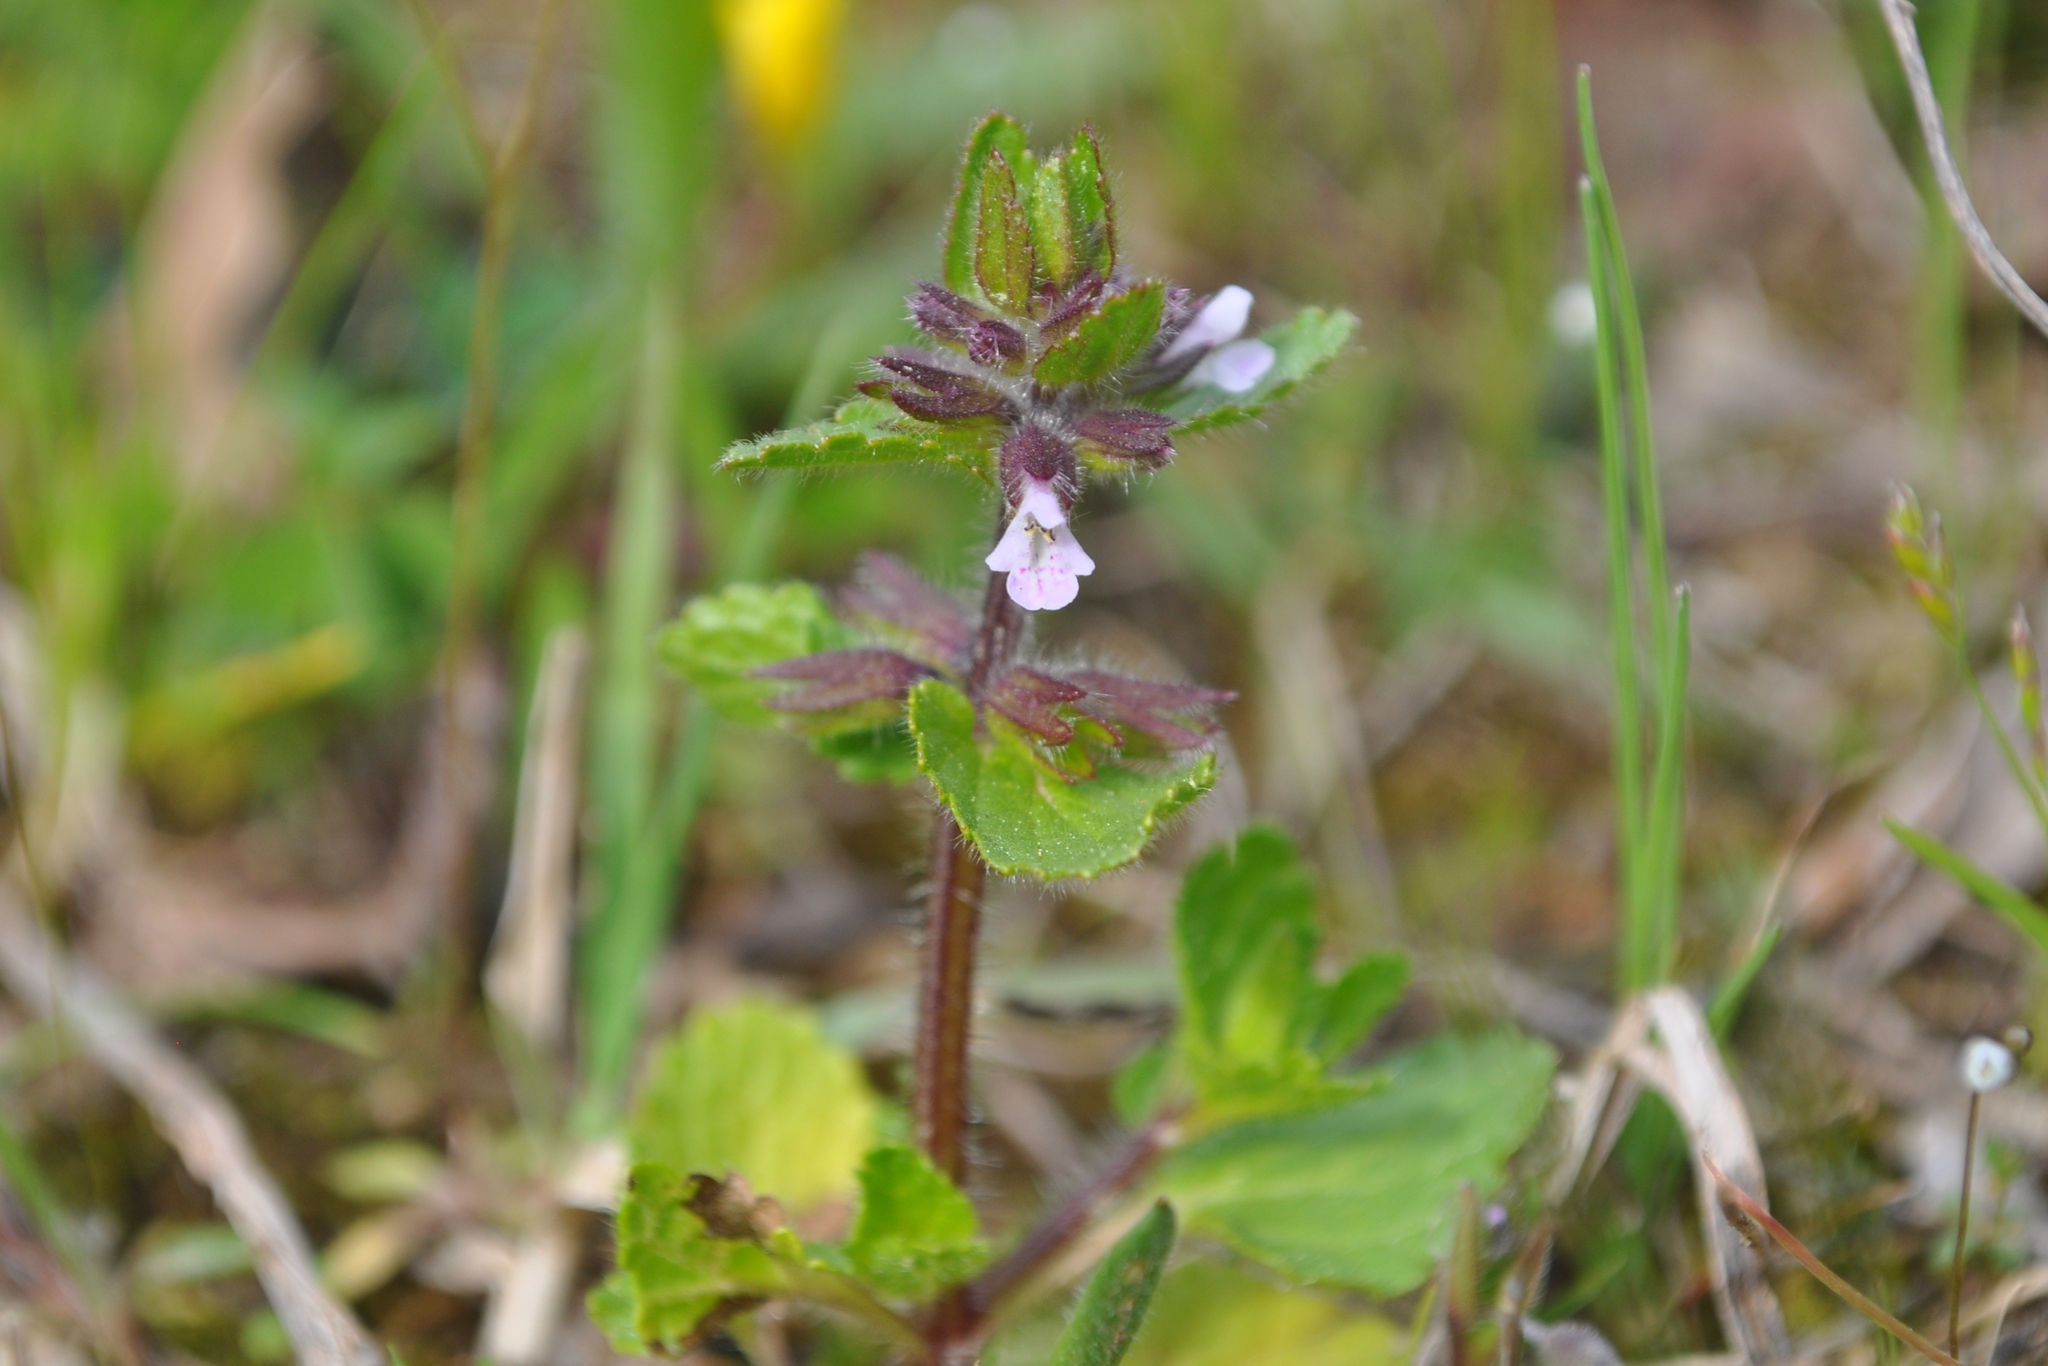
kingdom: Plantae
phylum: Tracheophyta
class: Magnoliopsida
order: Lamiales
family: Lamiaceae
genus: Stachys
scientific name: Stachys arvensis
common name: Field woundwort
